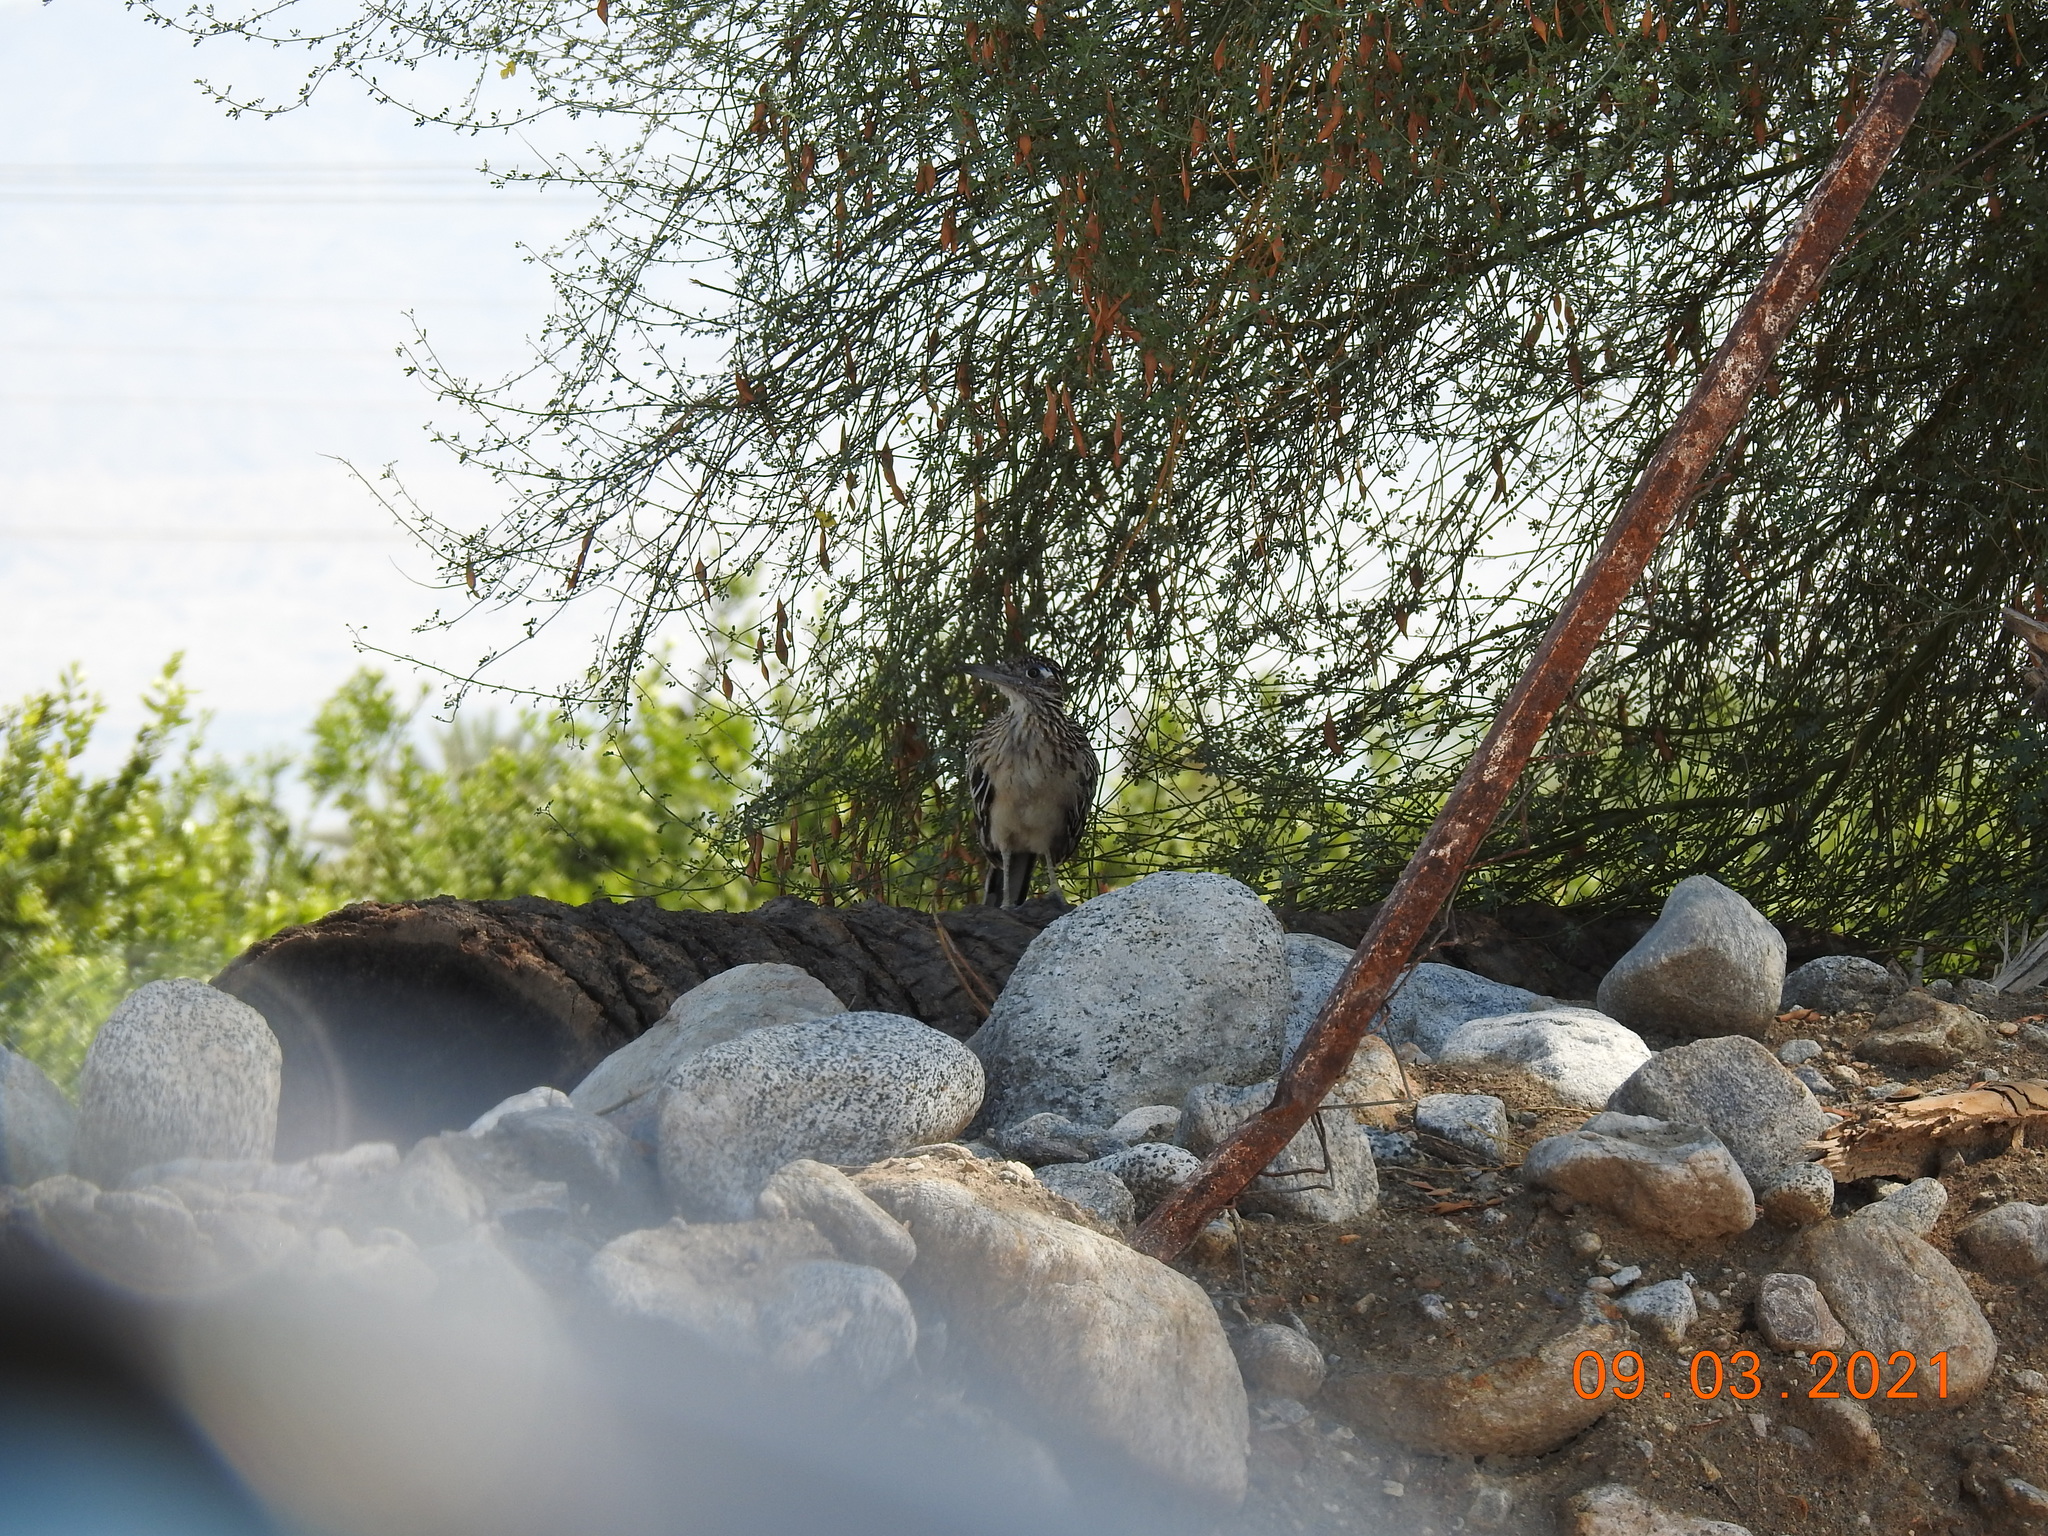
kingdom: Animalia
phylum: Chordata
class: Aves
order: Cuculiformes
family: Cuculidae
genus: Geococcyx
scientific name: Geococcyx californianus
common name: Greater roadrunner
